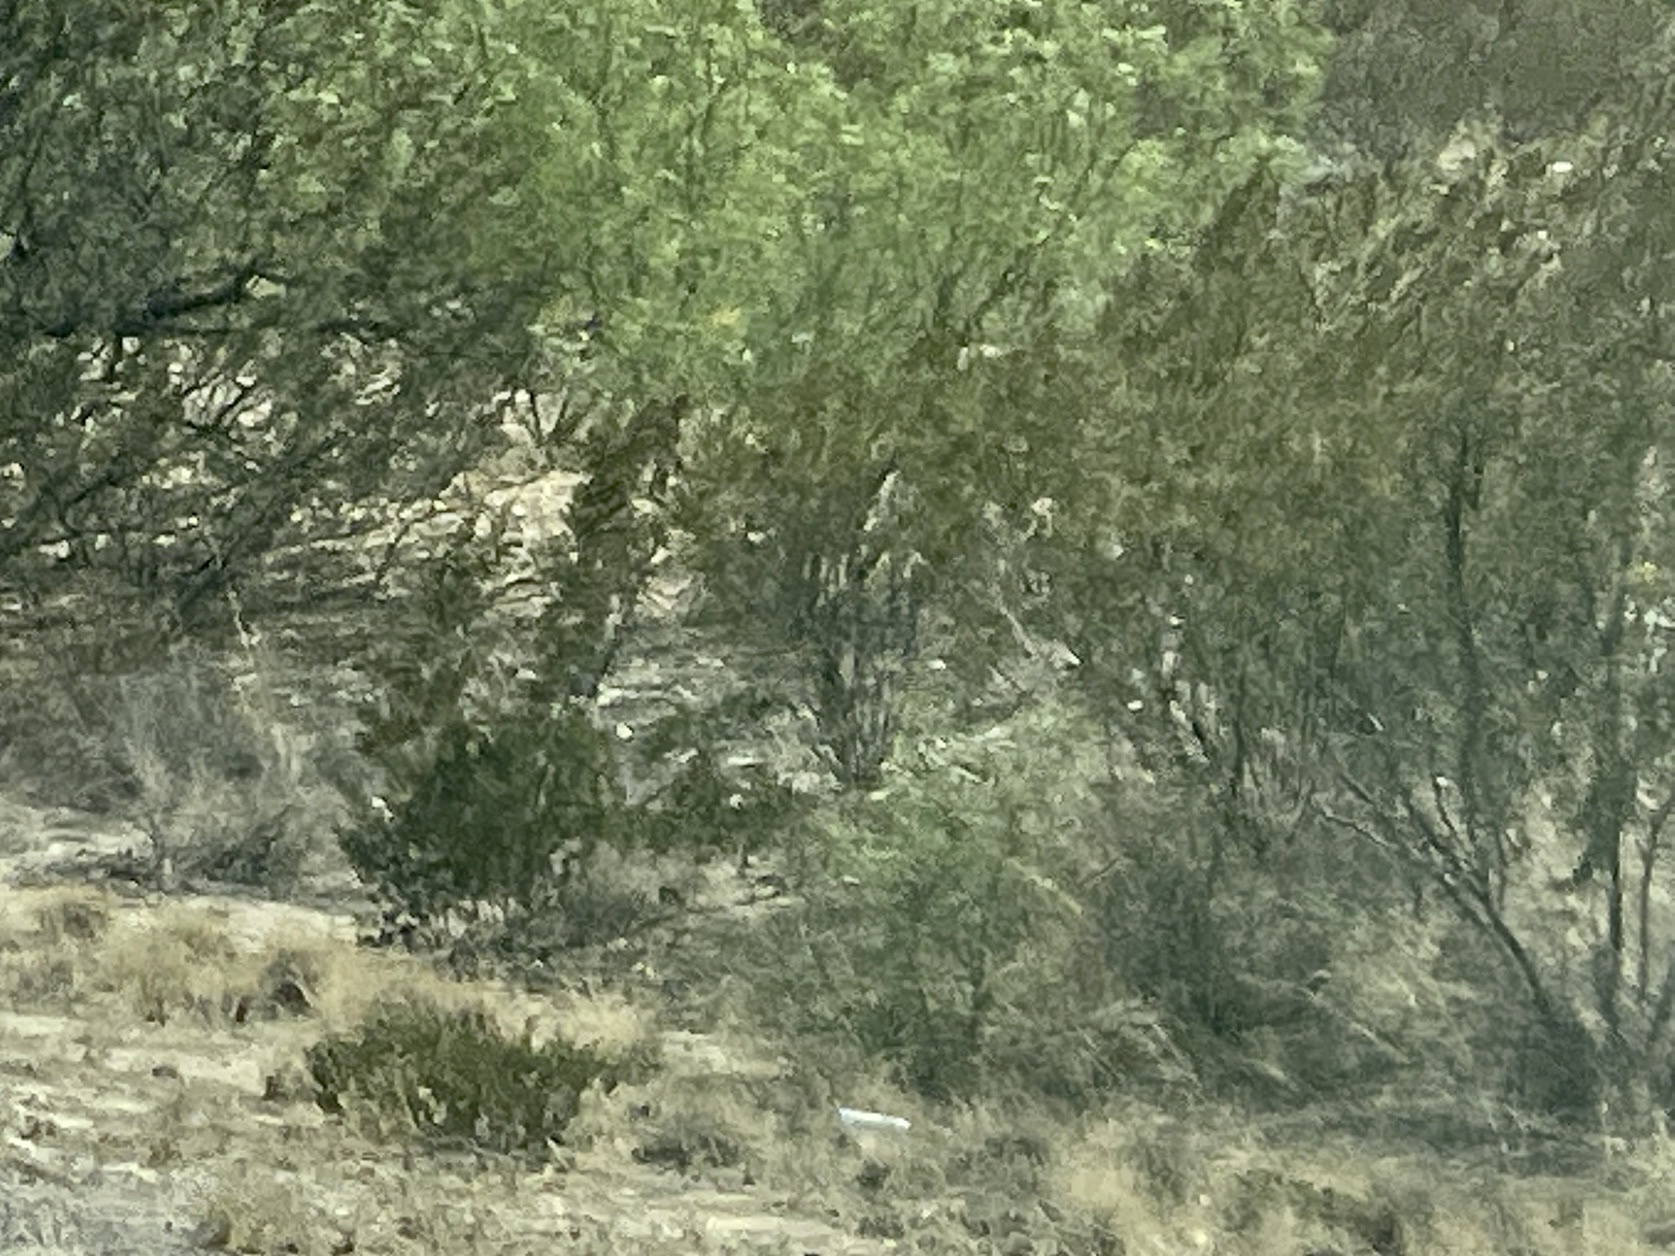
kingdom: Plantae
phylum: Tracheophyta
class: Magnoliopsida
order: Zygophyllales
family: Zygophyllaceae
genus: Larrea
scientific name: Larrea tridentata
